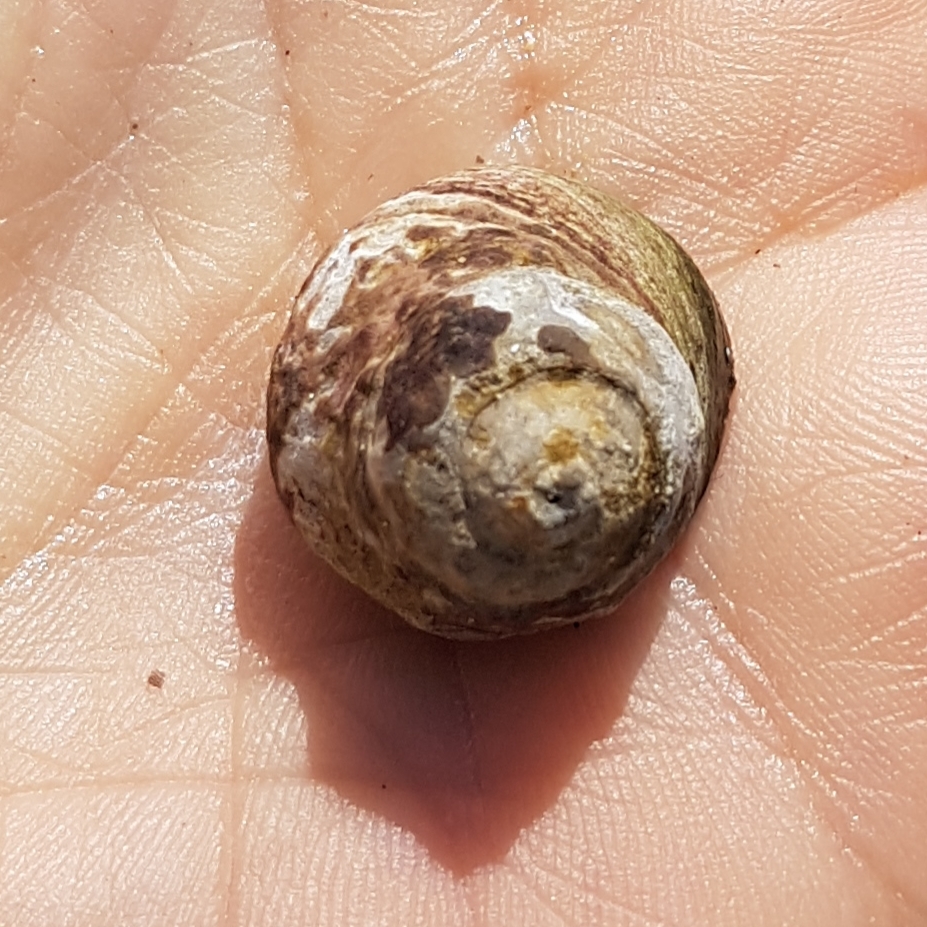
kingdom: Animalia
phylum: Mollusca
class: Gastropoda
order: Trochida
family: Trochidae
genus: Phorcus
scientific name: Phorcus lineatus
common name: Toothed top shell
